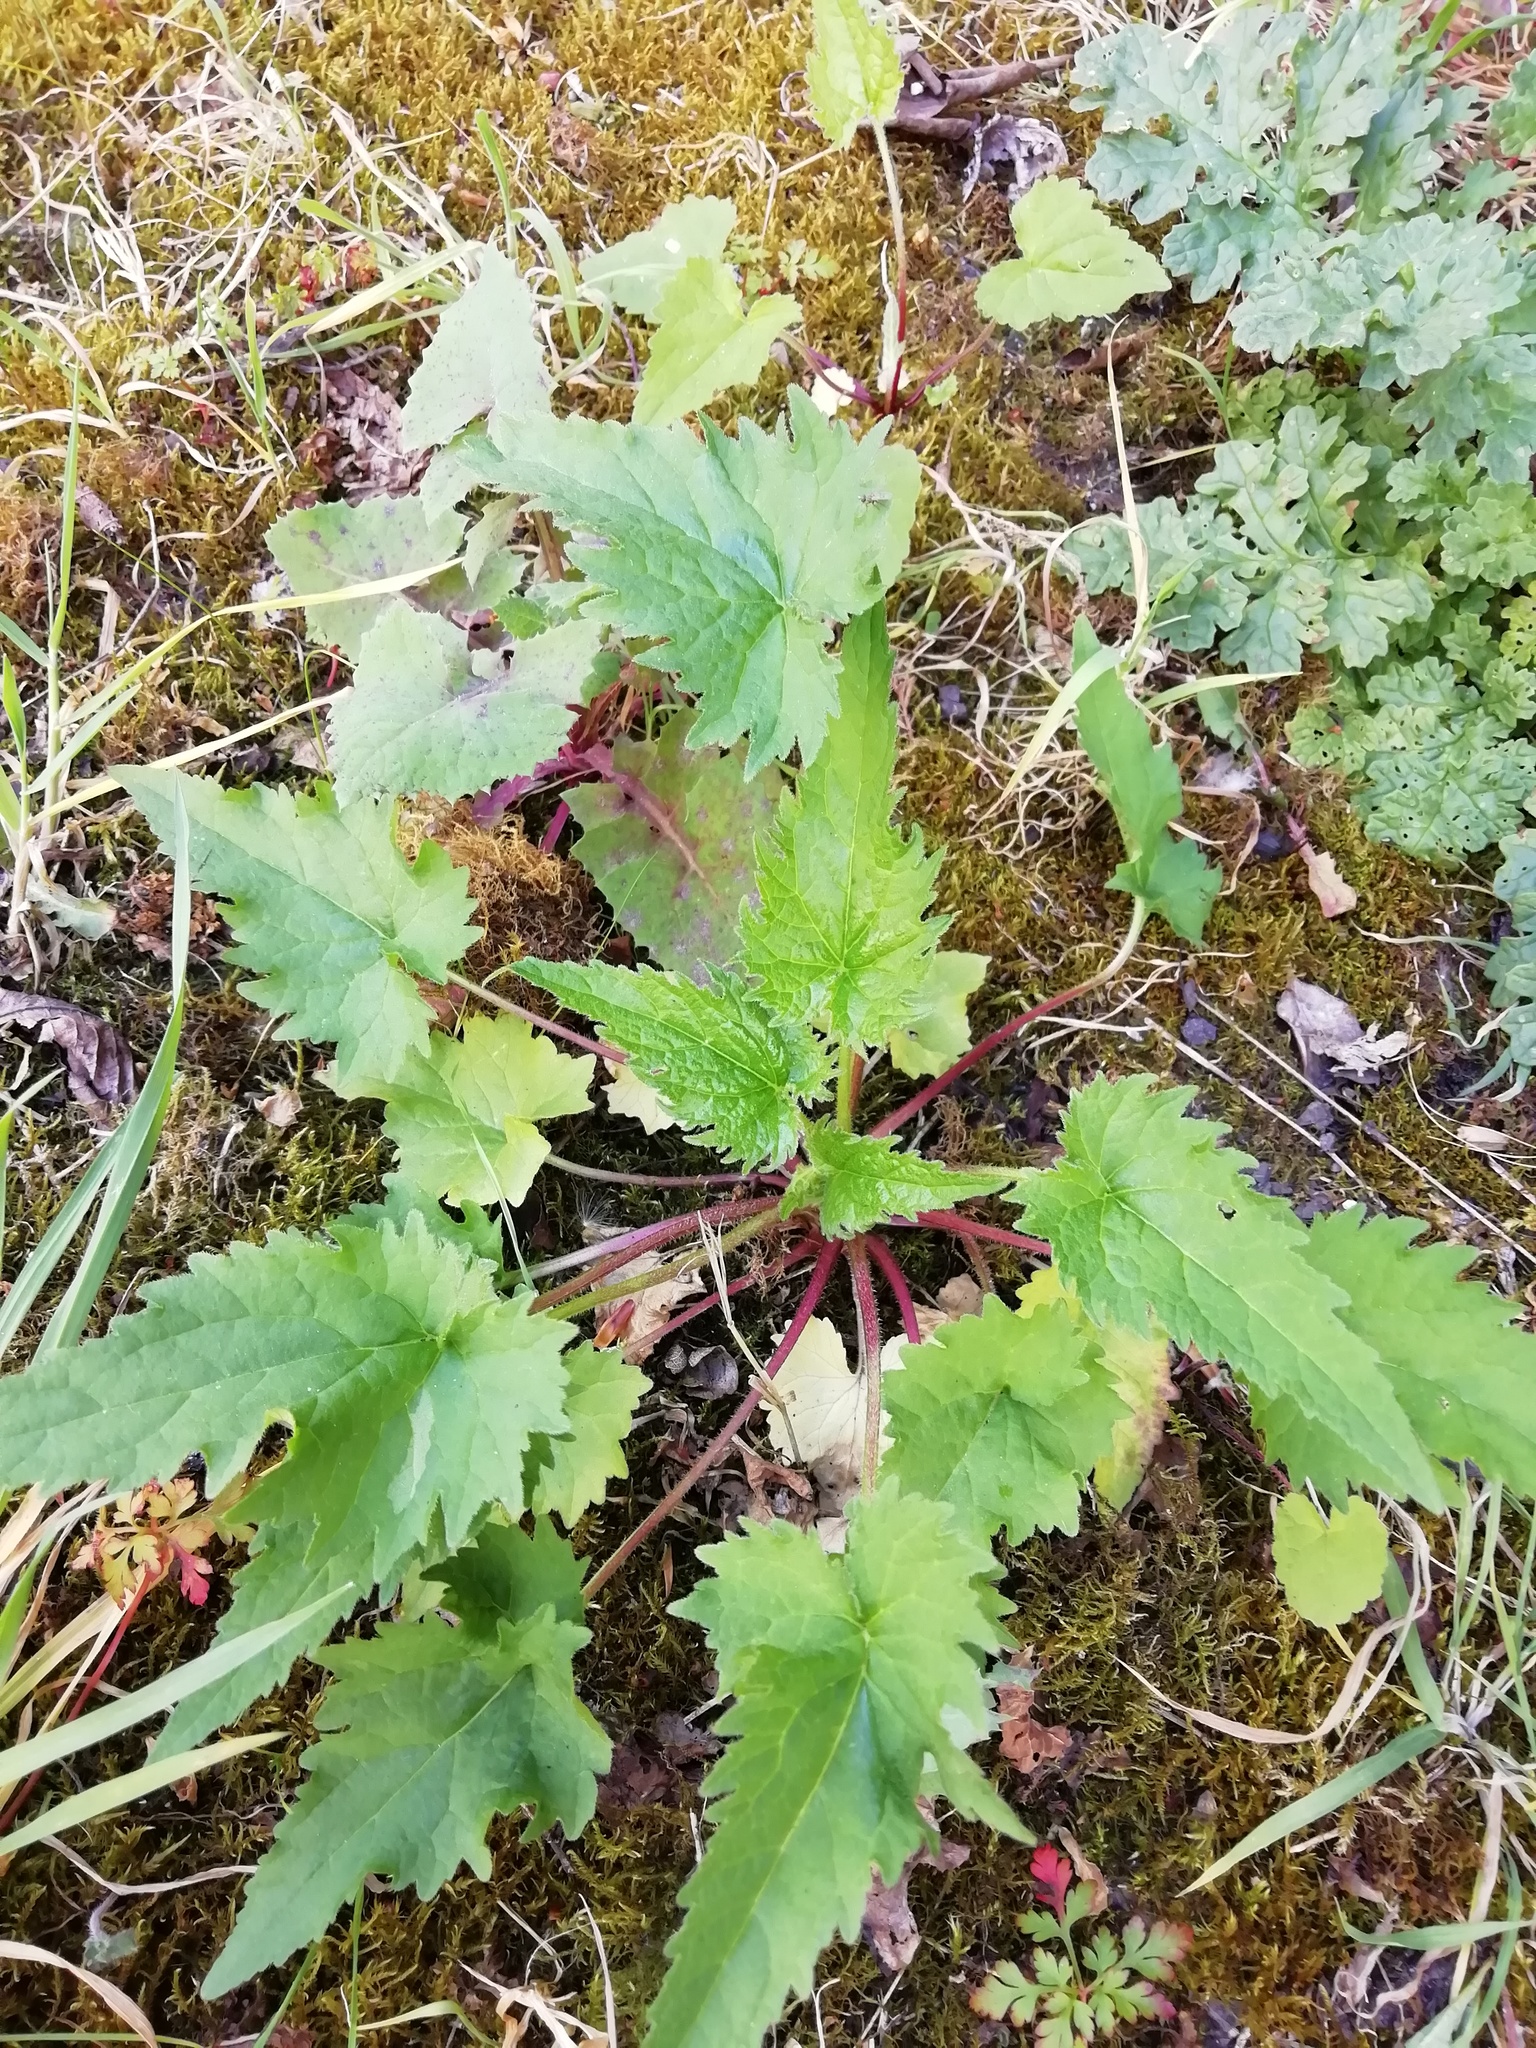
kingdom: Plantae
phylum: Tracheophyta
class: Magnoliopsida
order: Asterales
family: Campanulaceae
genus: Campanula
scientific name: Campanula trachelium
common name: Nettle-leaved bellflower
